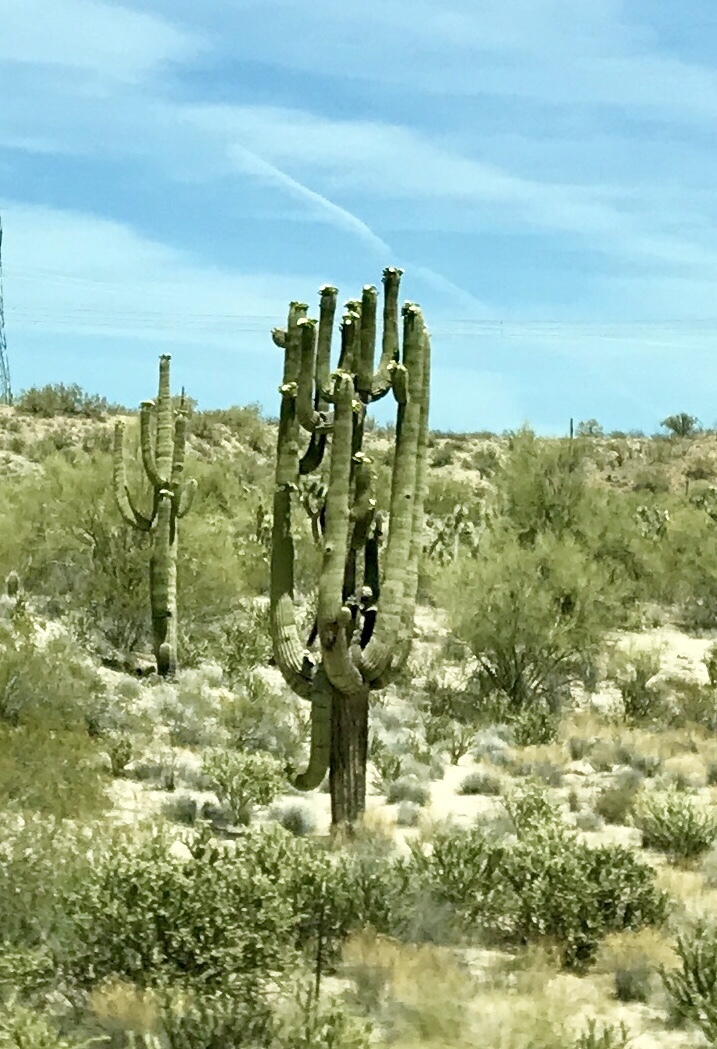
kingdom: Plantae
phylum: Tracheophyta
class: Magnoliopsida
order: Caryophyllales
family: Cactaceae
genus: Carnegiea
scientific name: Carnegiea gigantea
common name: Saguaro
